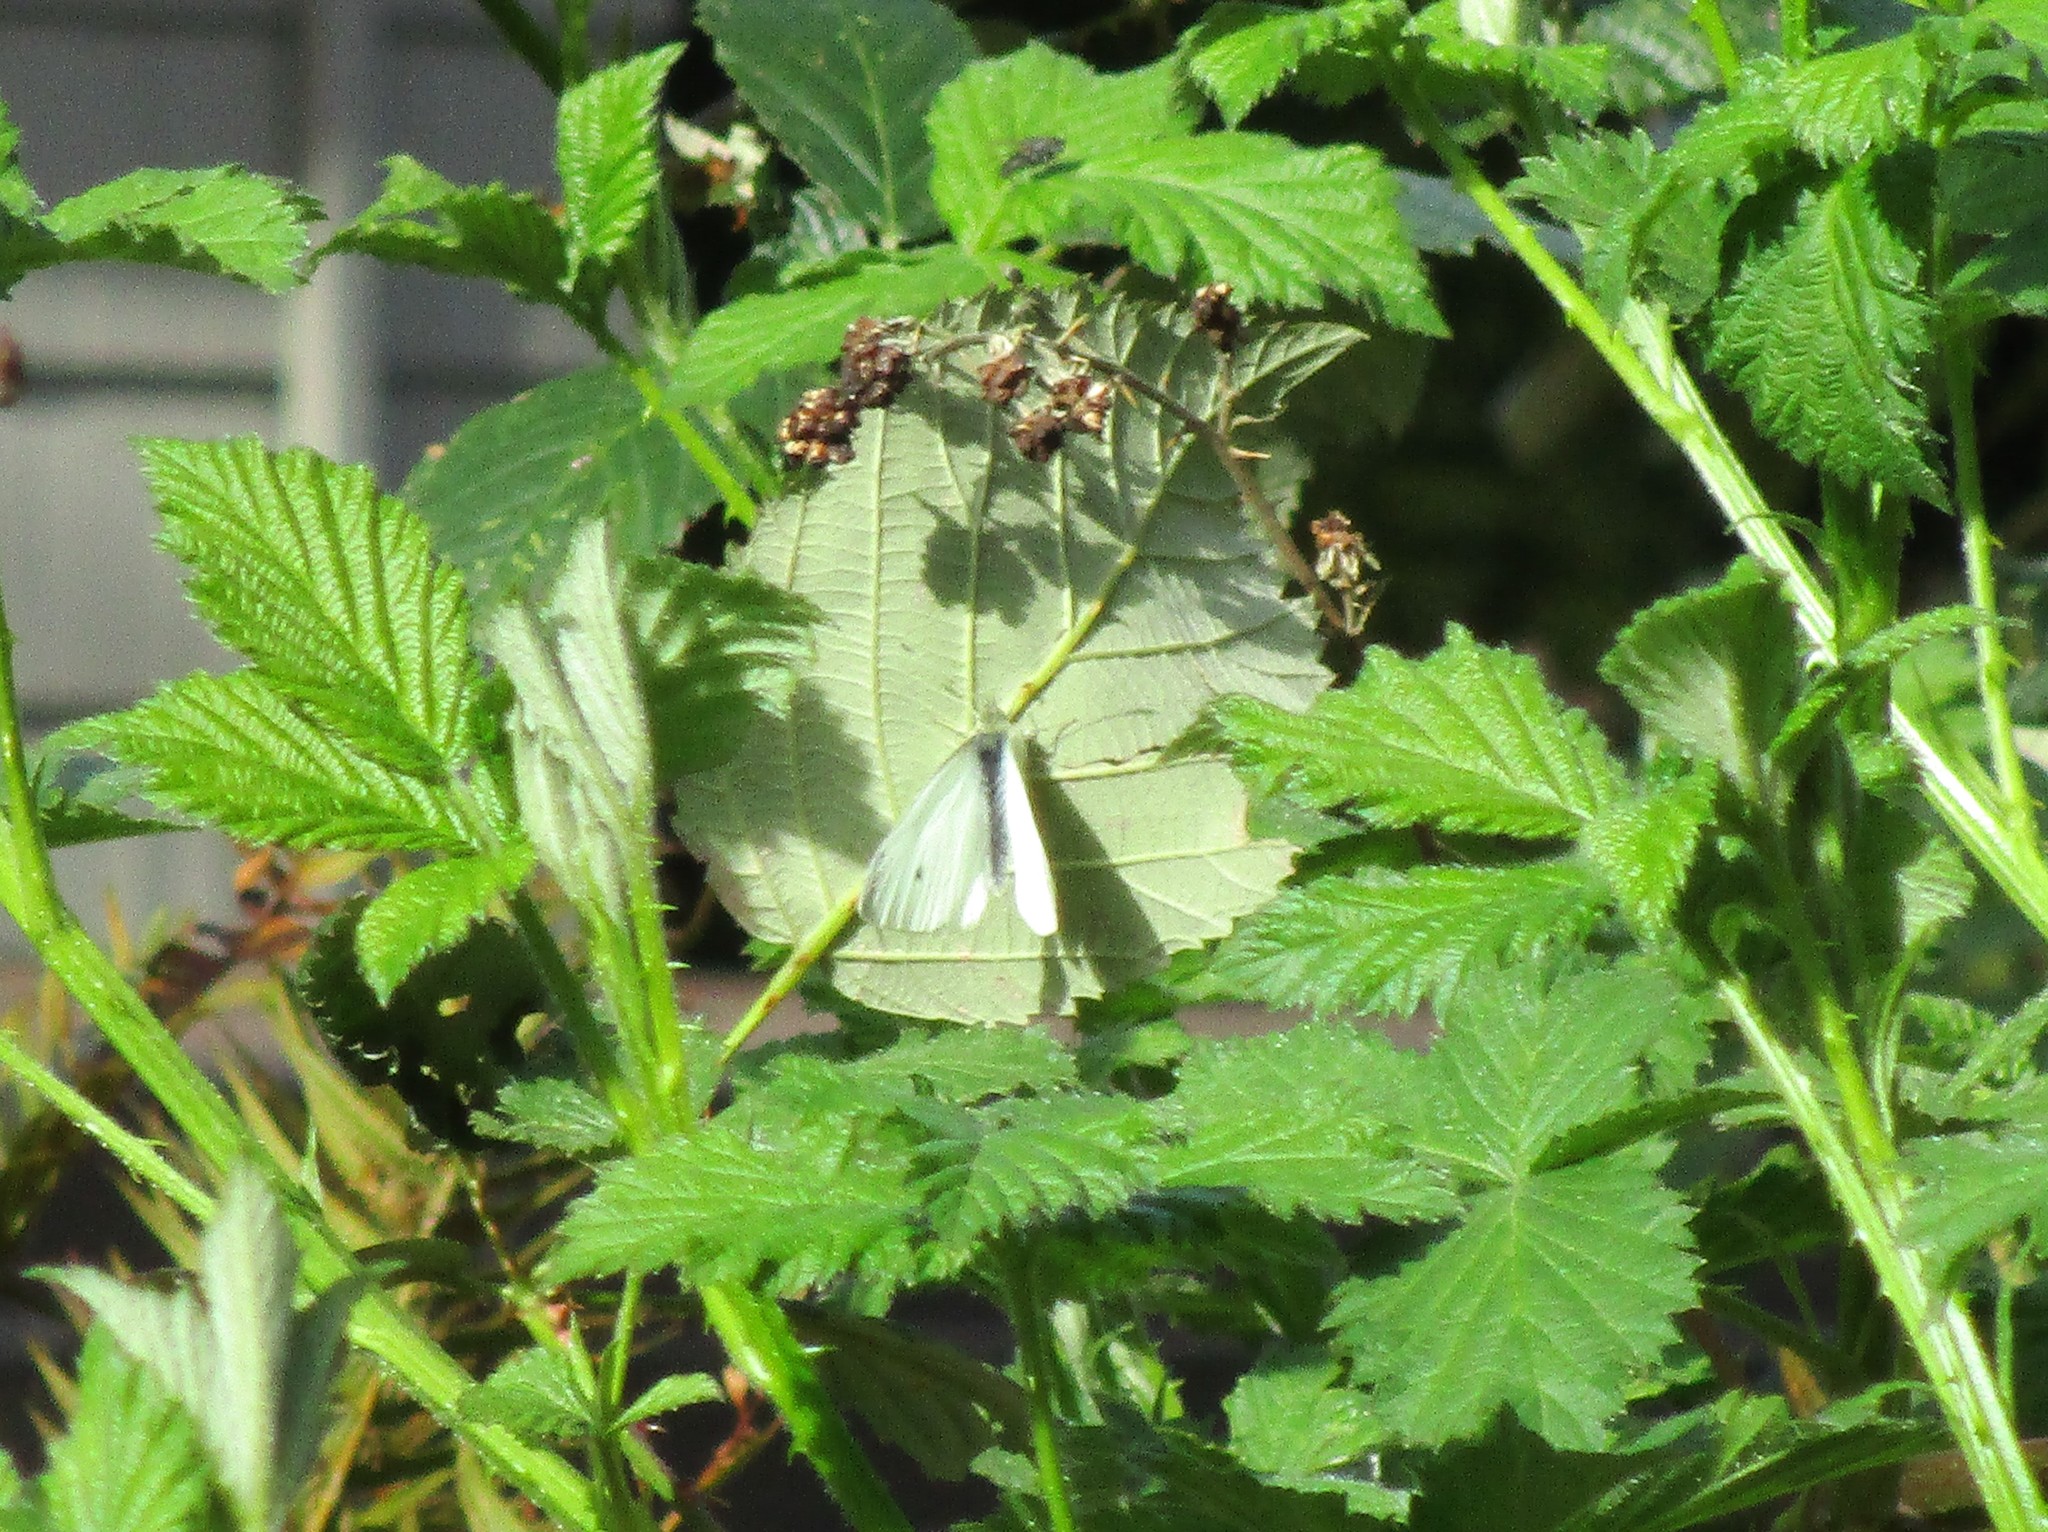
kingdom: Animalia
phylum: Arthropoda
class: Insecta
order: Lepidoptera
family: Pieridae
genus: Pieris
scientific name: Pieris rapae
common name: Small white
